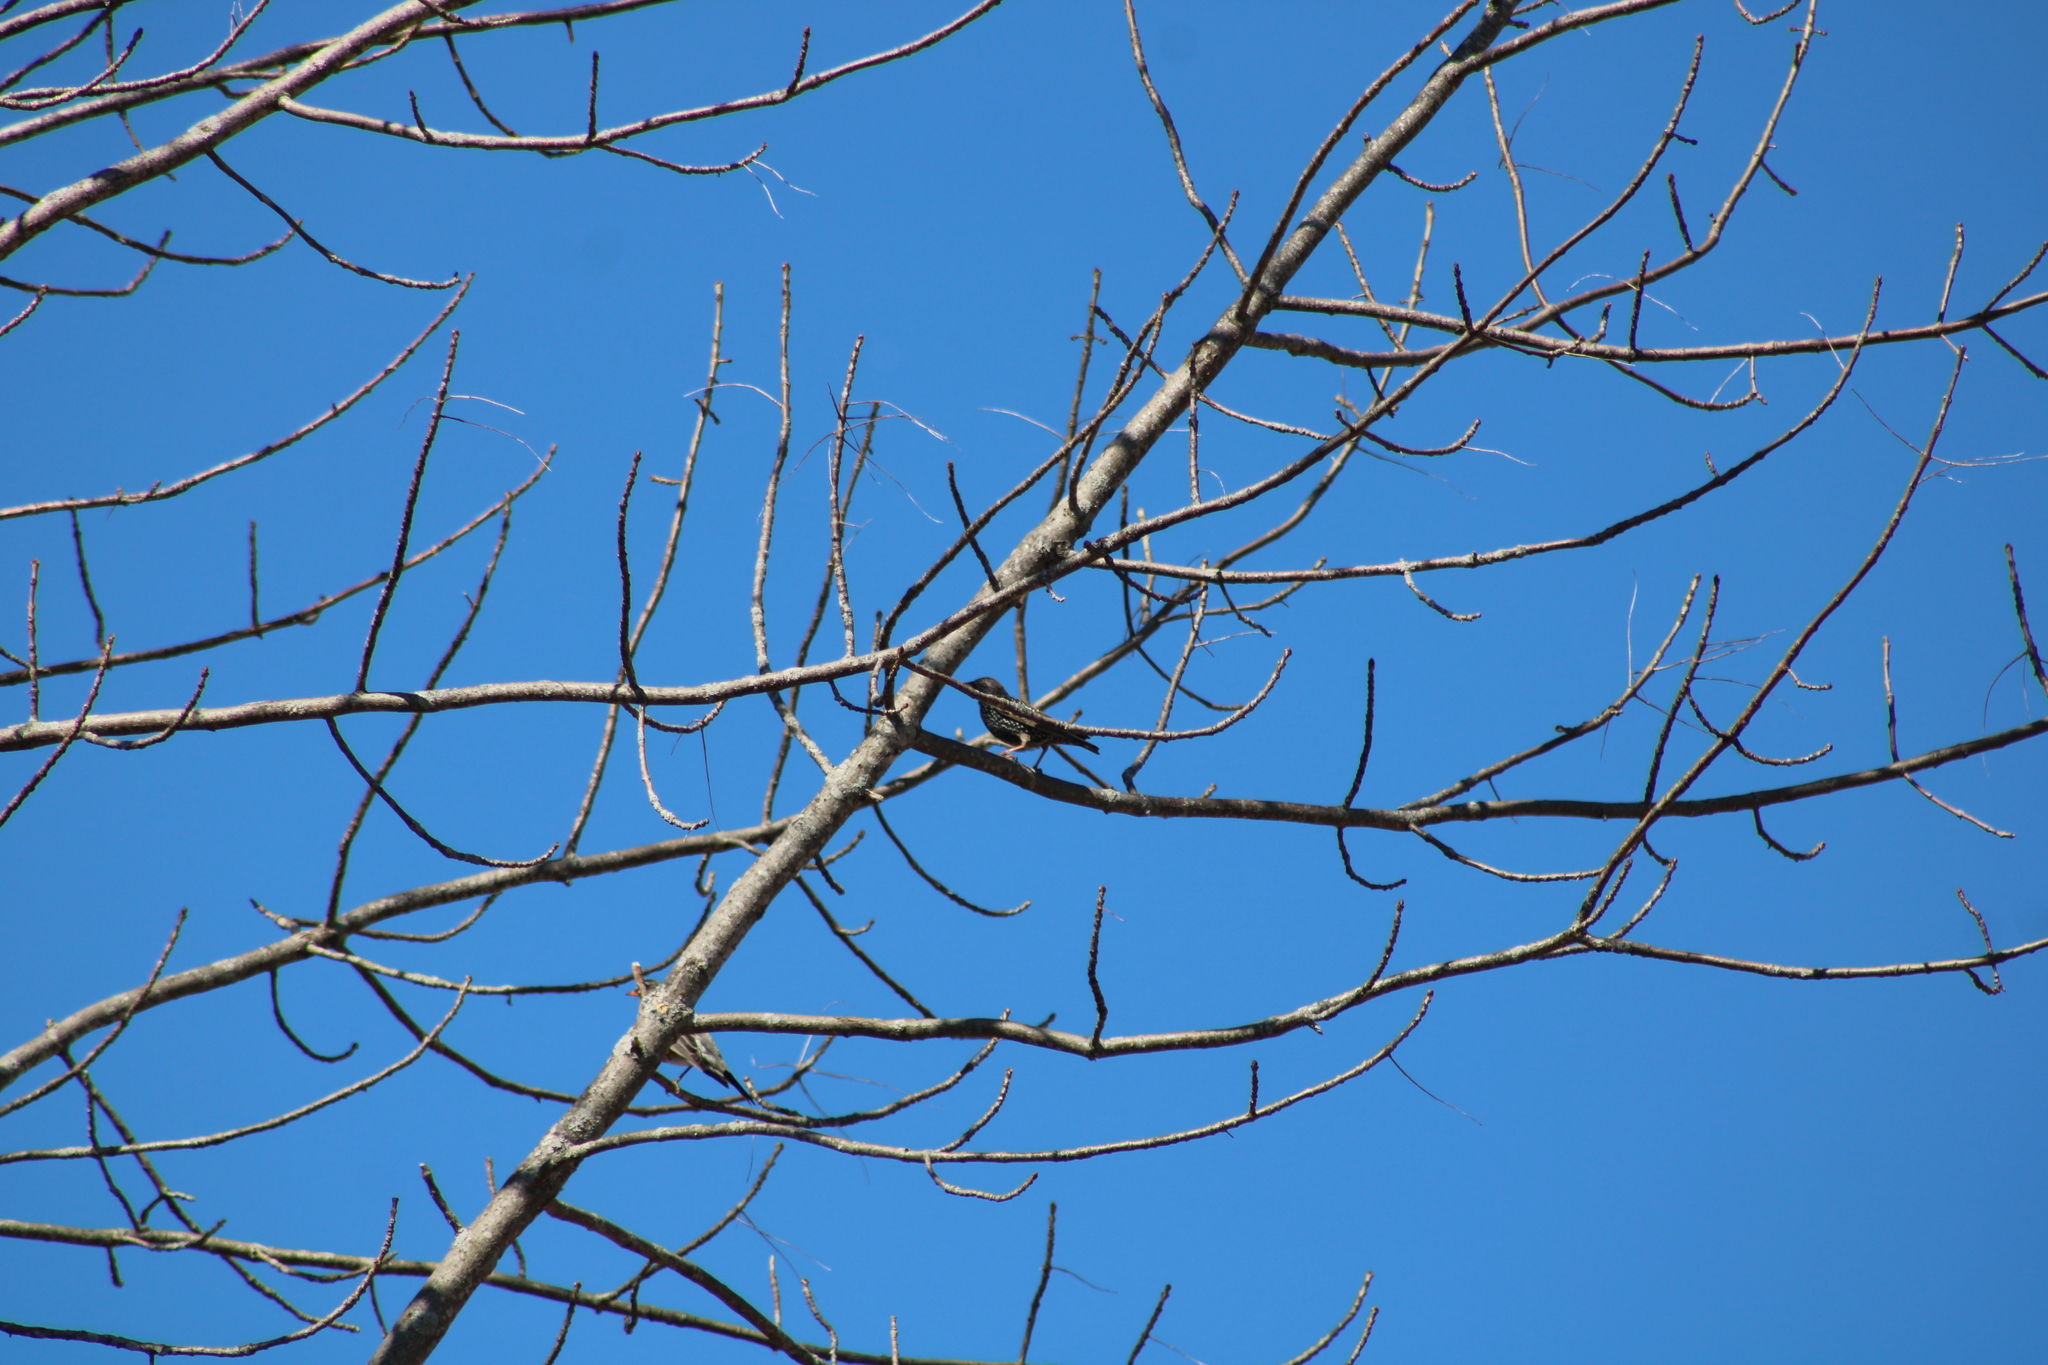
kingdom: Animalia
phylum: Chordata
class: Aves
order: Passeriformes
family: Sturnidae
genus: Sturnus
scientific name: Sturnus vulgaris
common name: Common starling
